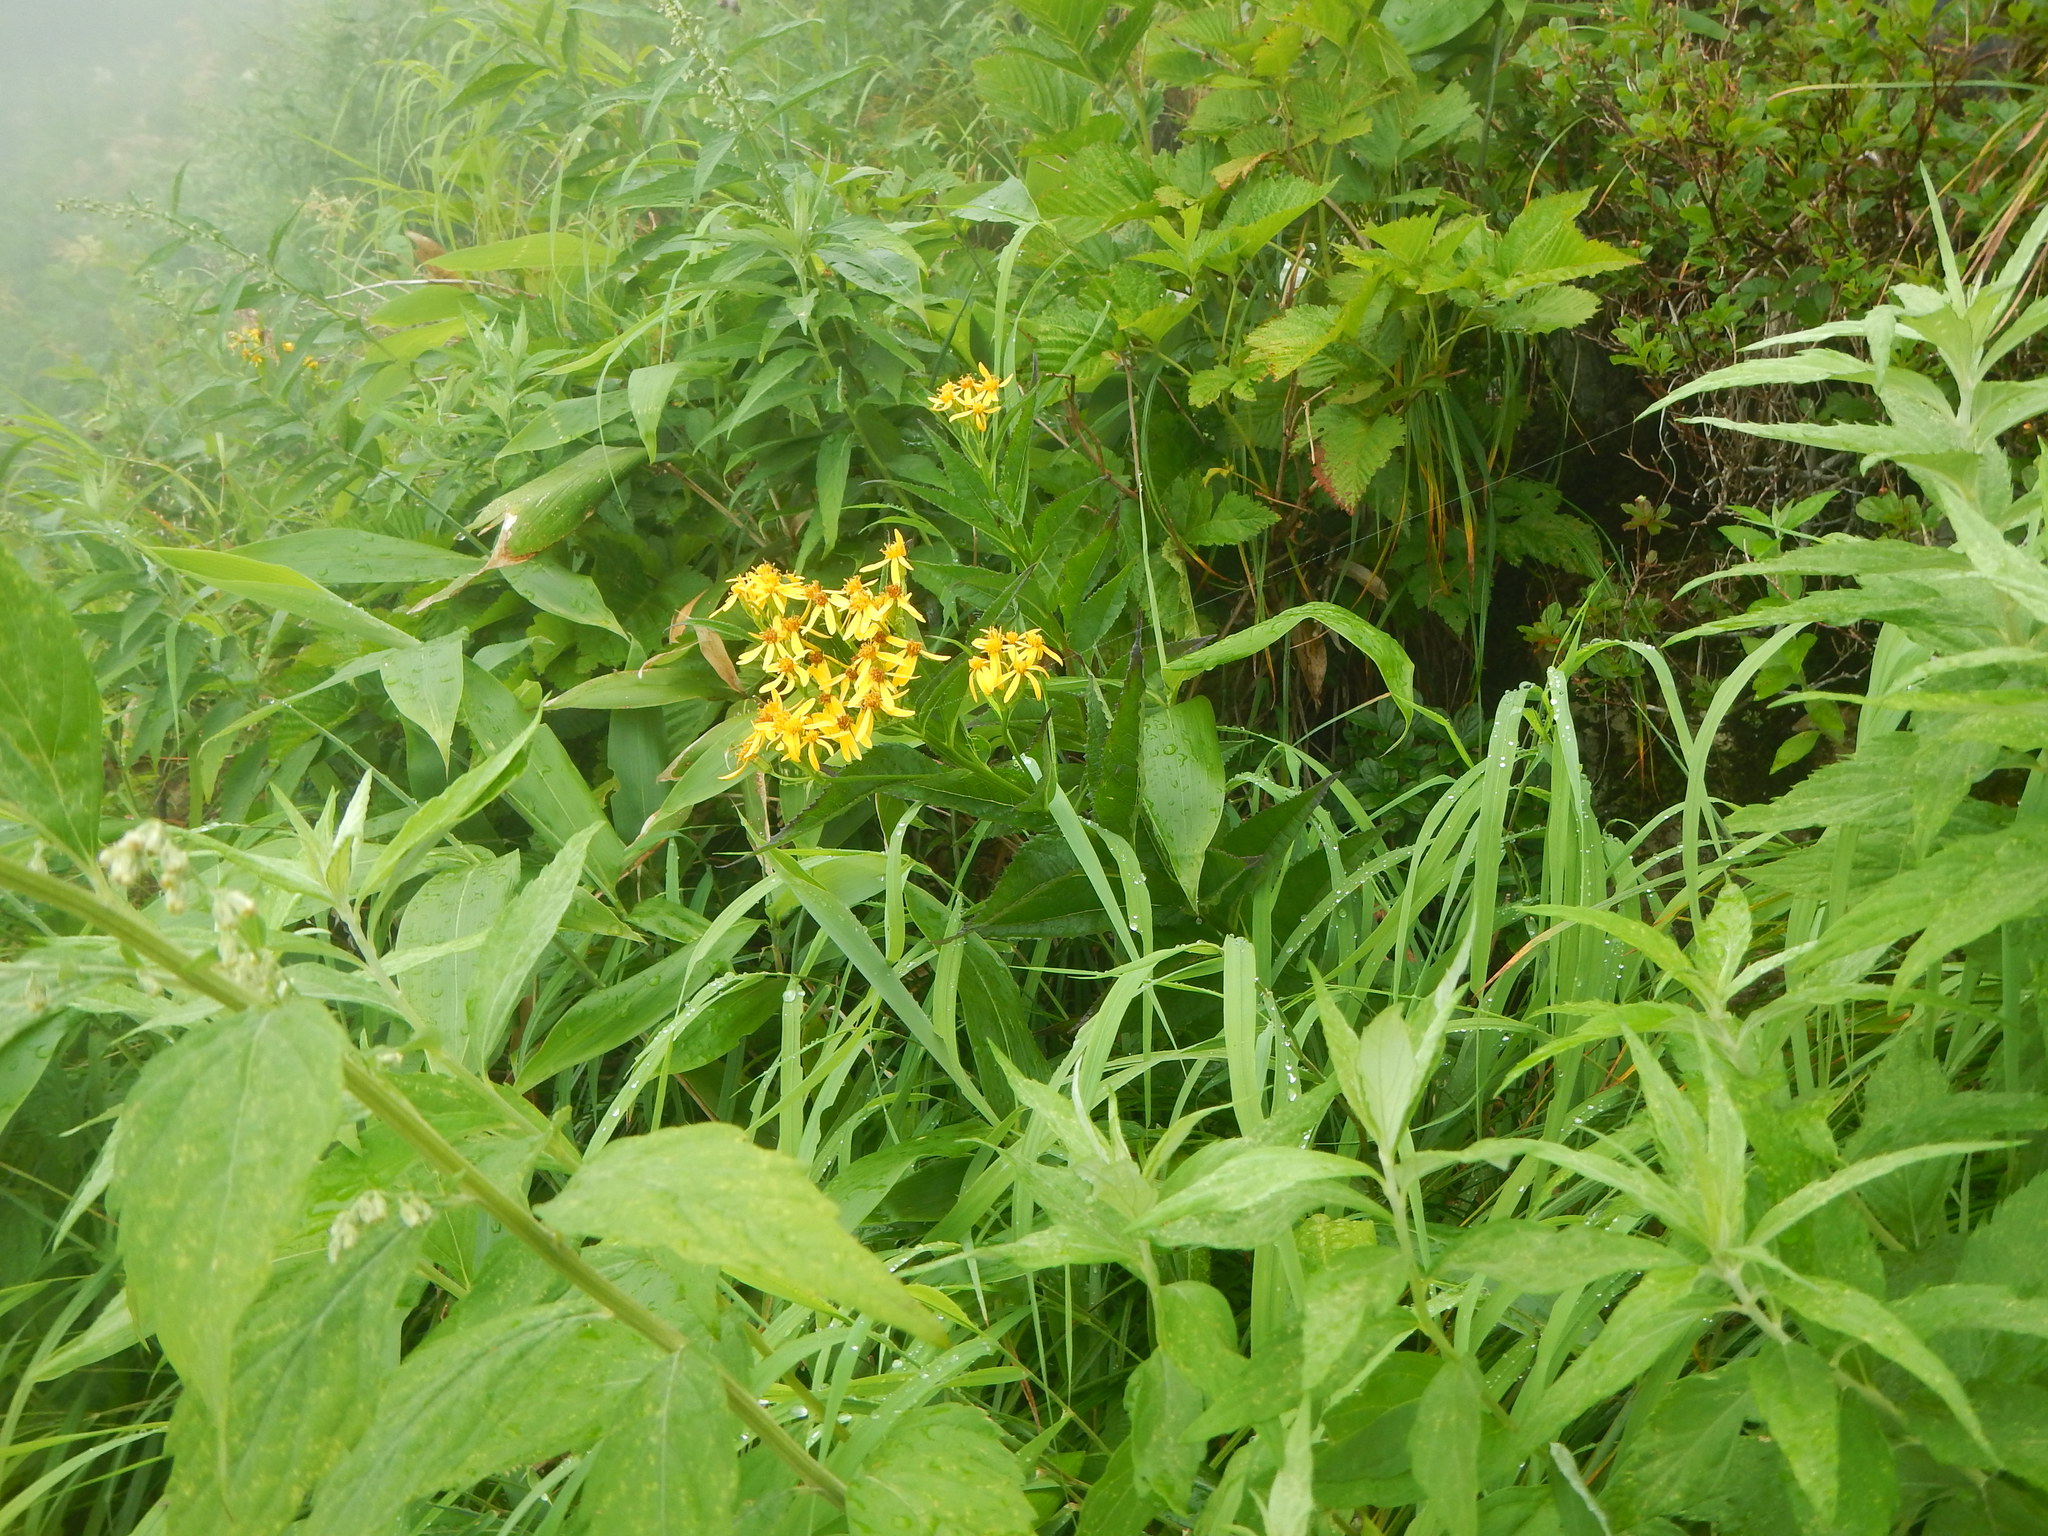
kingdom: Plantae
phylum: Tracheophyta
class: Magnoliopsida
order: Asterales
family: Asteraceae
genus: Senecio
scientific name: Senecio nemorensis
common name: Alpine ragwort
